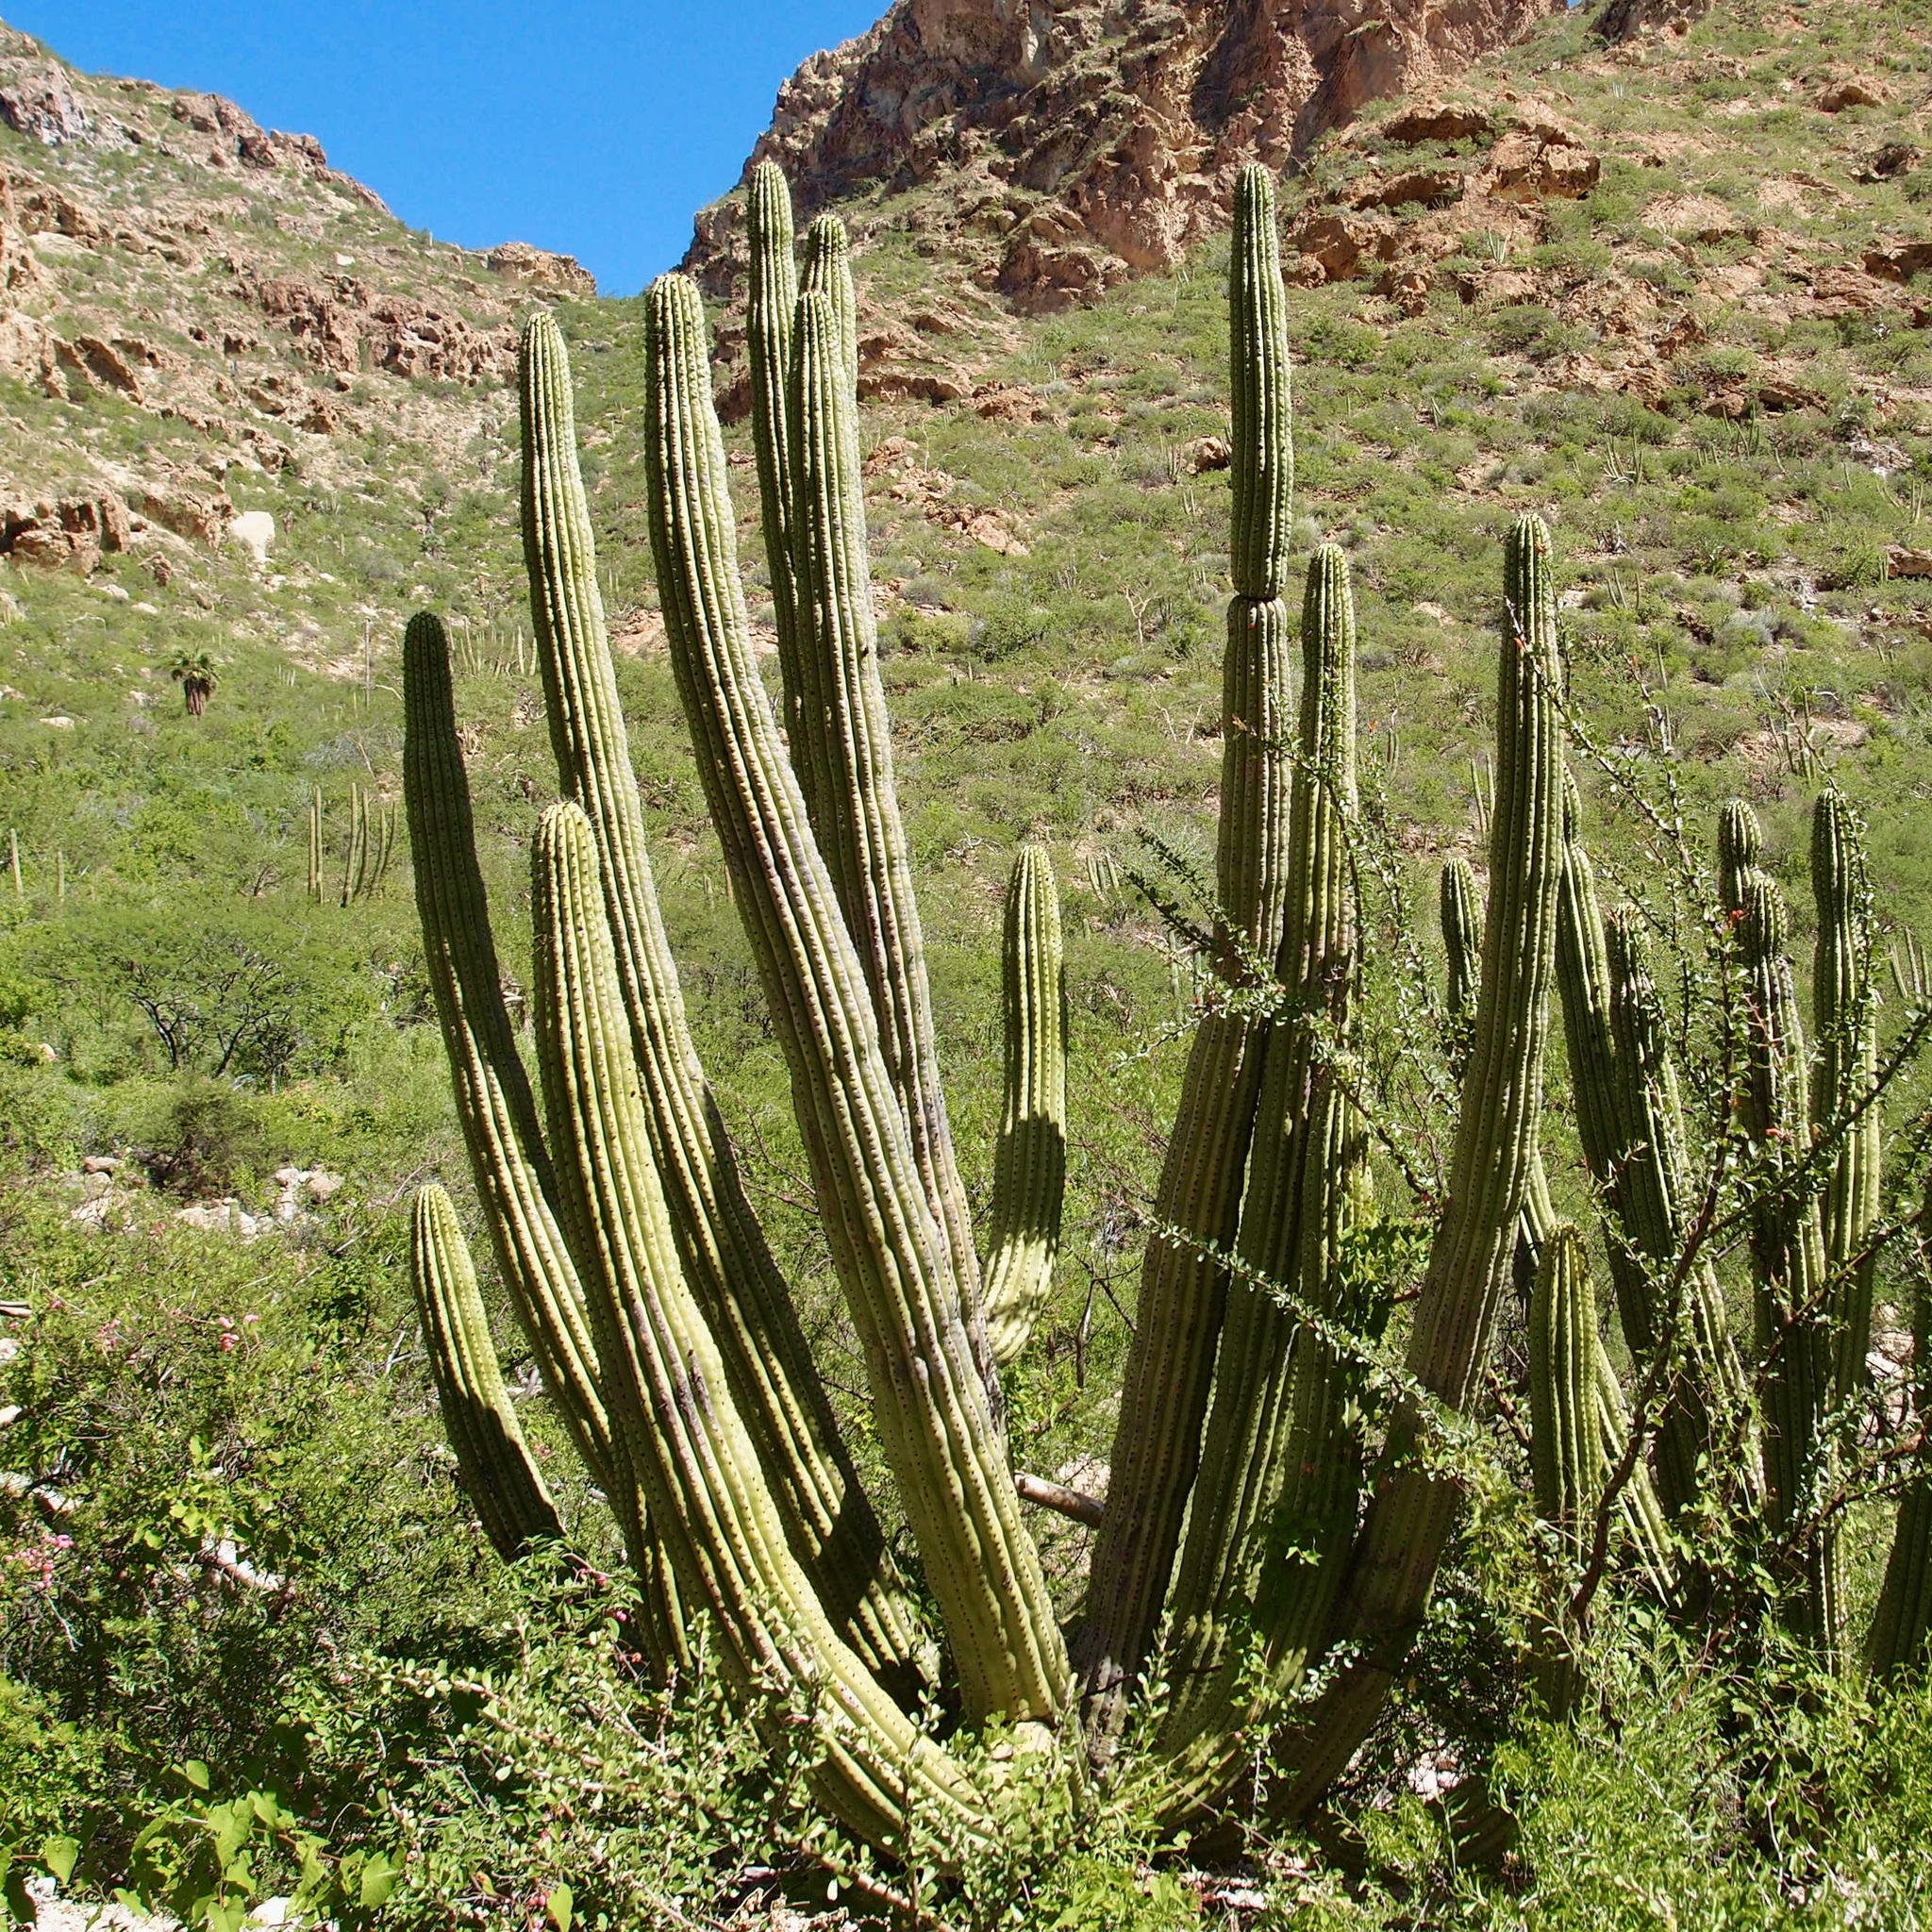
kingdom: Plantae
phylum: Tracheophyta
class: Magnoliopsida
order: Caryophyllales
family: Cactaceae
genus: Stenocereus
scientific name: Stenocereus thurberi
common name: Organ pipe cactus
